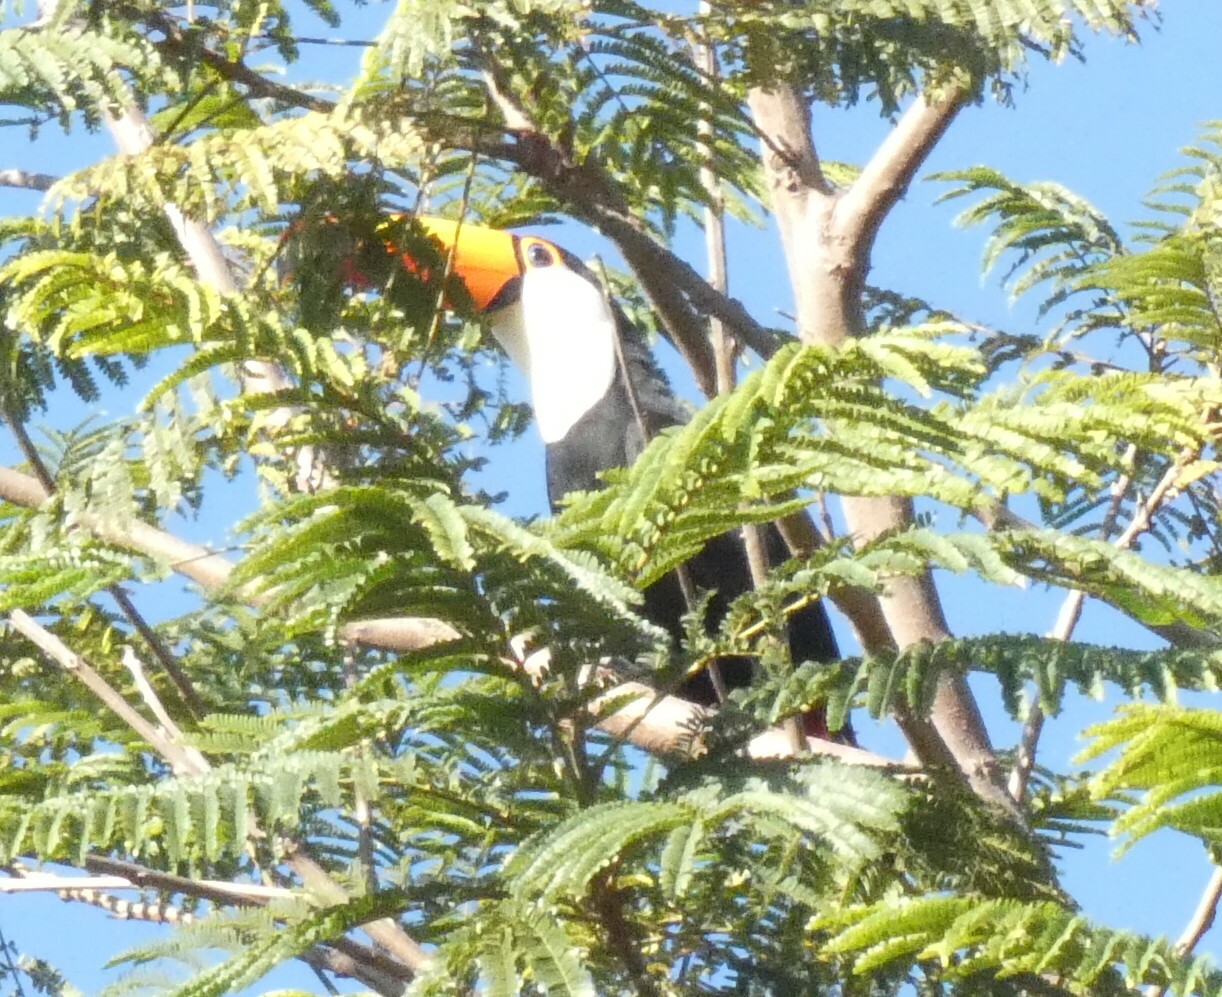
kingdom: Animalia
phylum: Chordata
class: Aves
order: Piciformes
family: Ramphastidae
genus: Ramphastos
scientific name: Ramphastos toco
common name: Toco toucan
